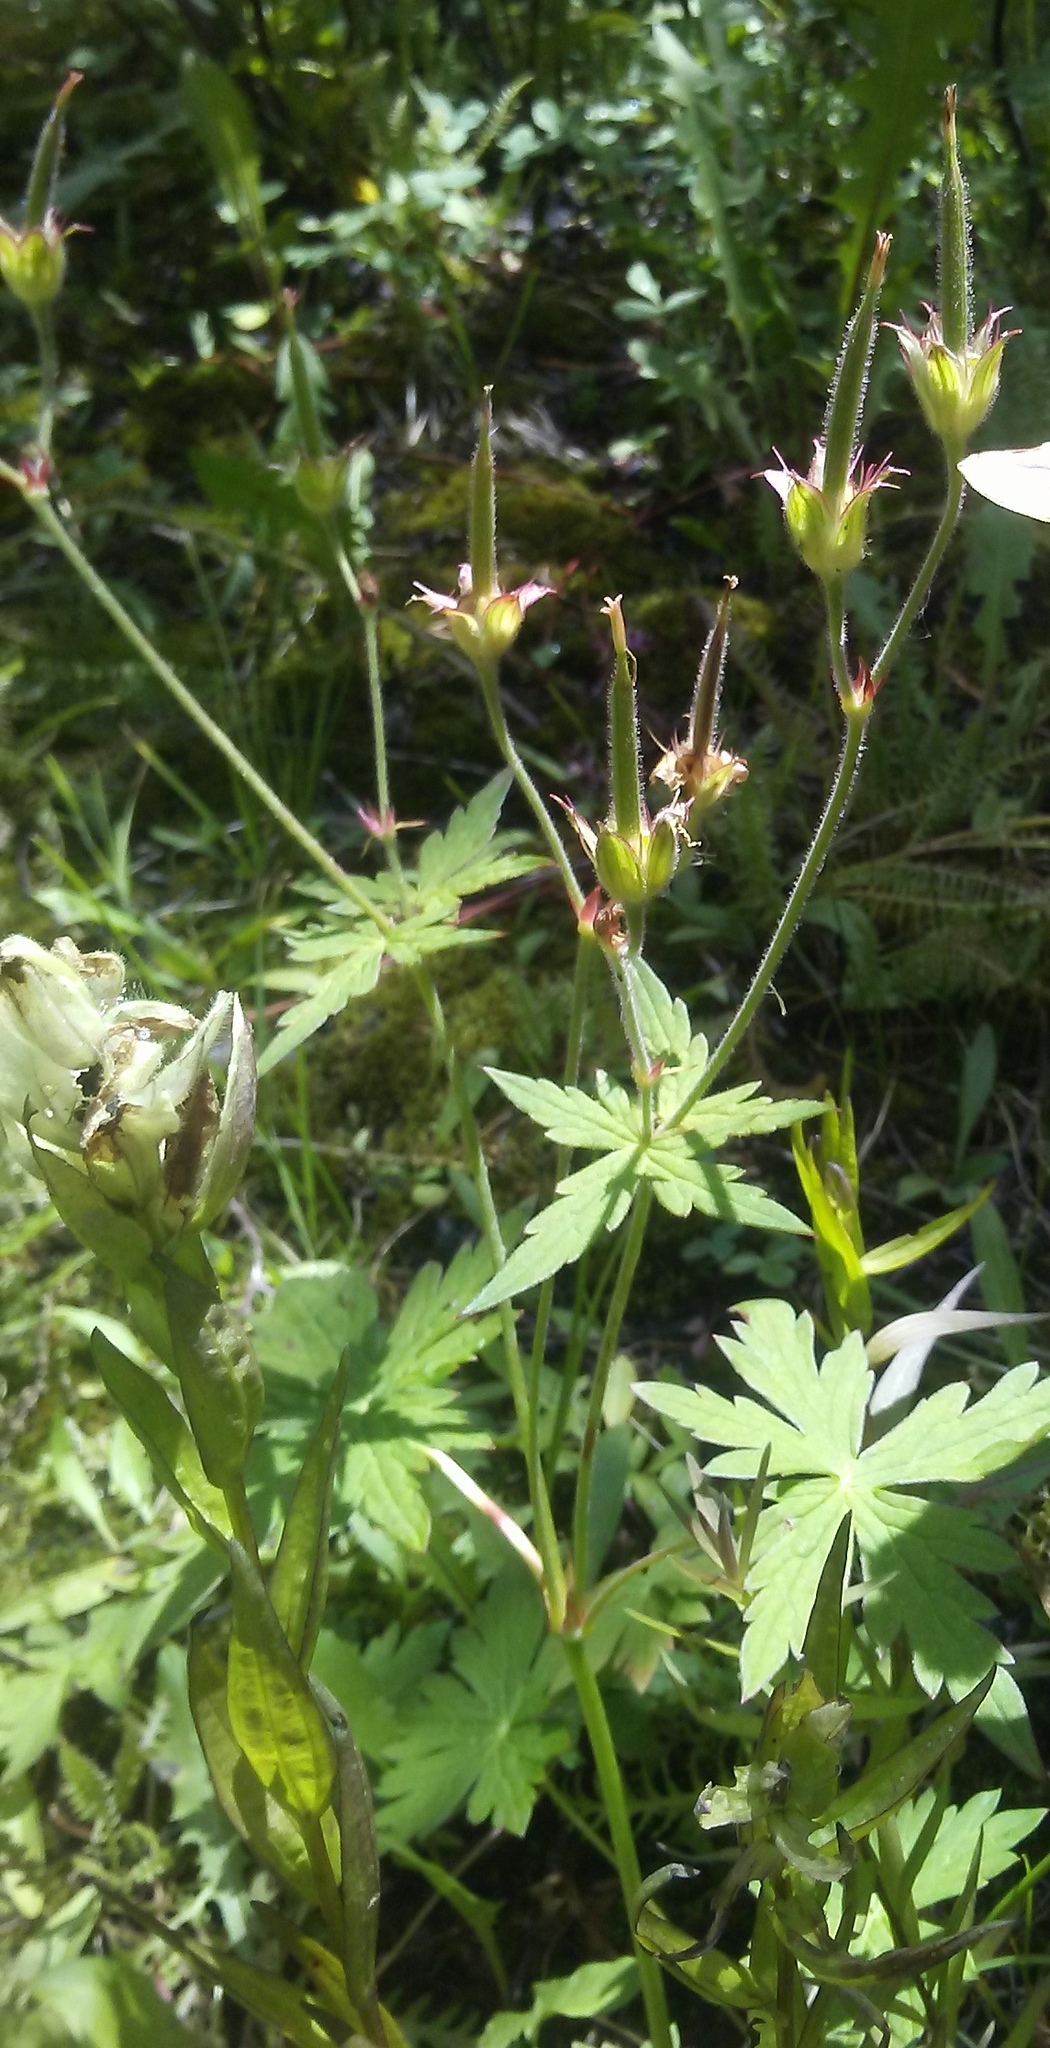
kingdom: Plantae
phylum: Tracheophyta
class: Magnoliopsida
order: Geraniales
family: Geraniaceae
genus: Geranium
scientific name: Geranium richardsonii
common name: Richardson's crane's-bill
